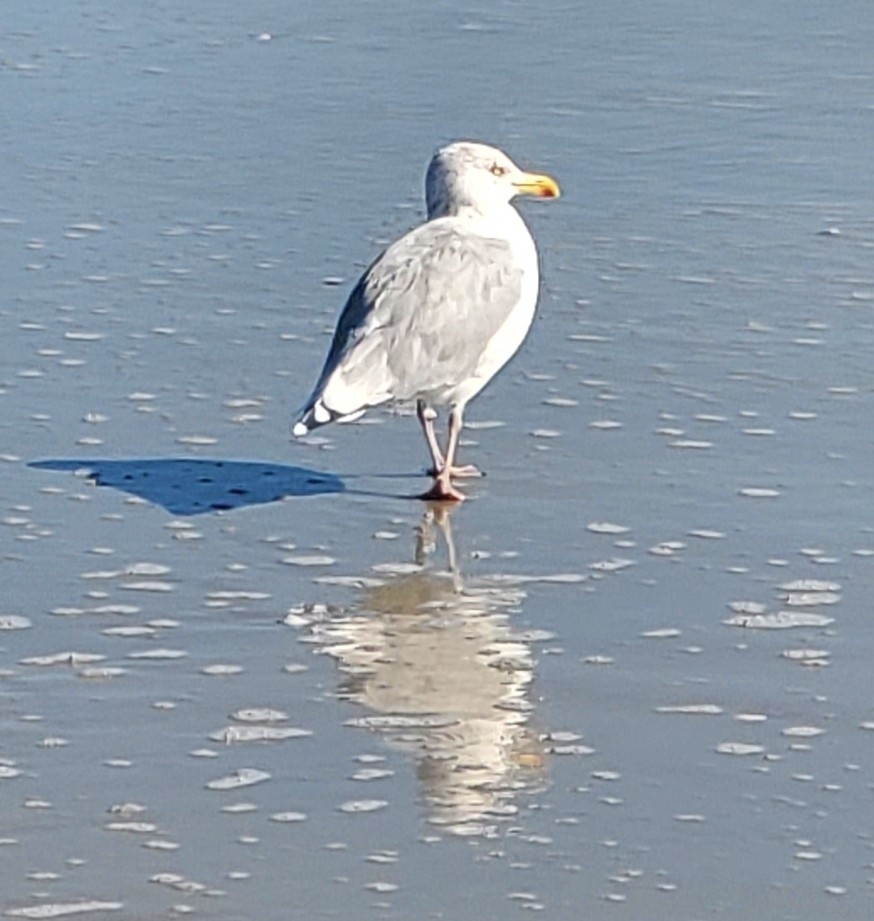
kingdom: Animalia
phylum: Chordata
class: Aves
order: Charadriiformes
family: Laridae
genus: Larus
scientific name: Larus argentatus
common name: Herring gull
